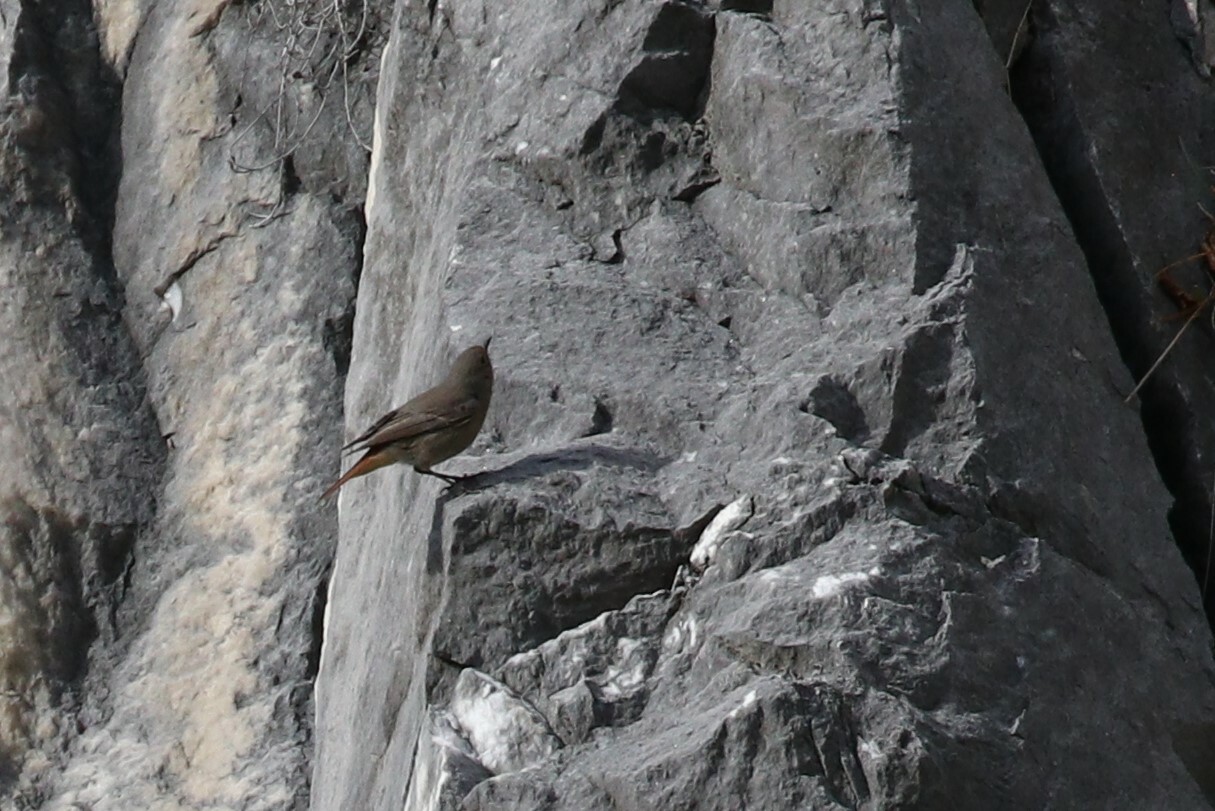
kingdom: Animalia
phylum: Chordata
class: Aves
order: Passeriformes
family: Muscicapidae
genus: Phoenicurus
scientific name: Phoenicurus ochruros
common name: Black redstart
